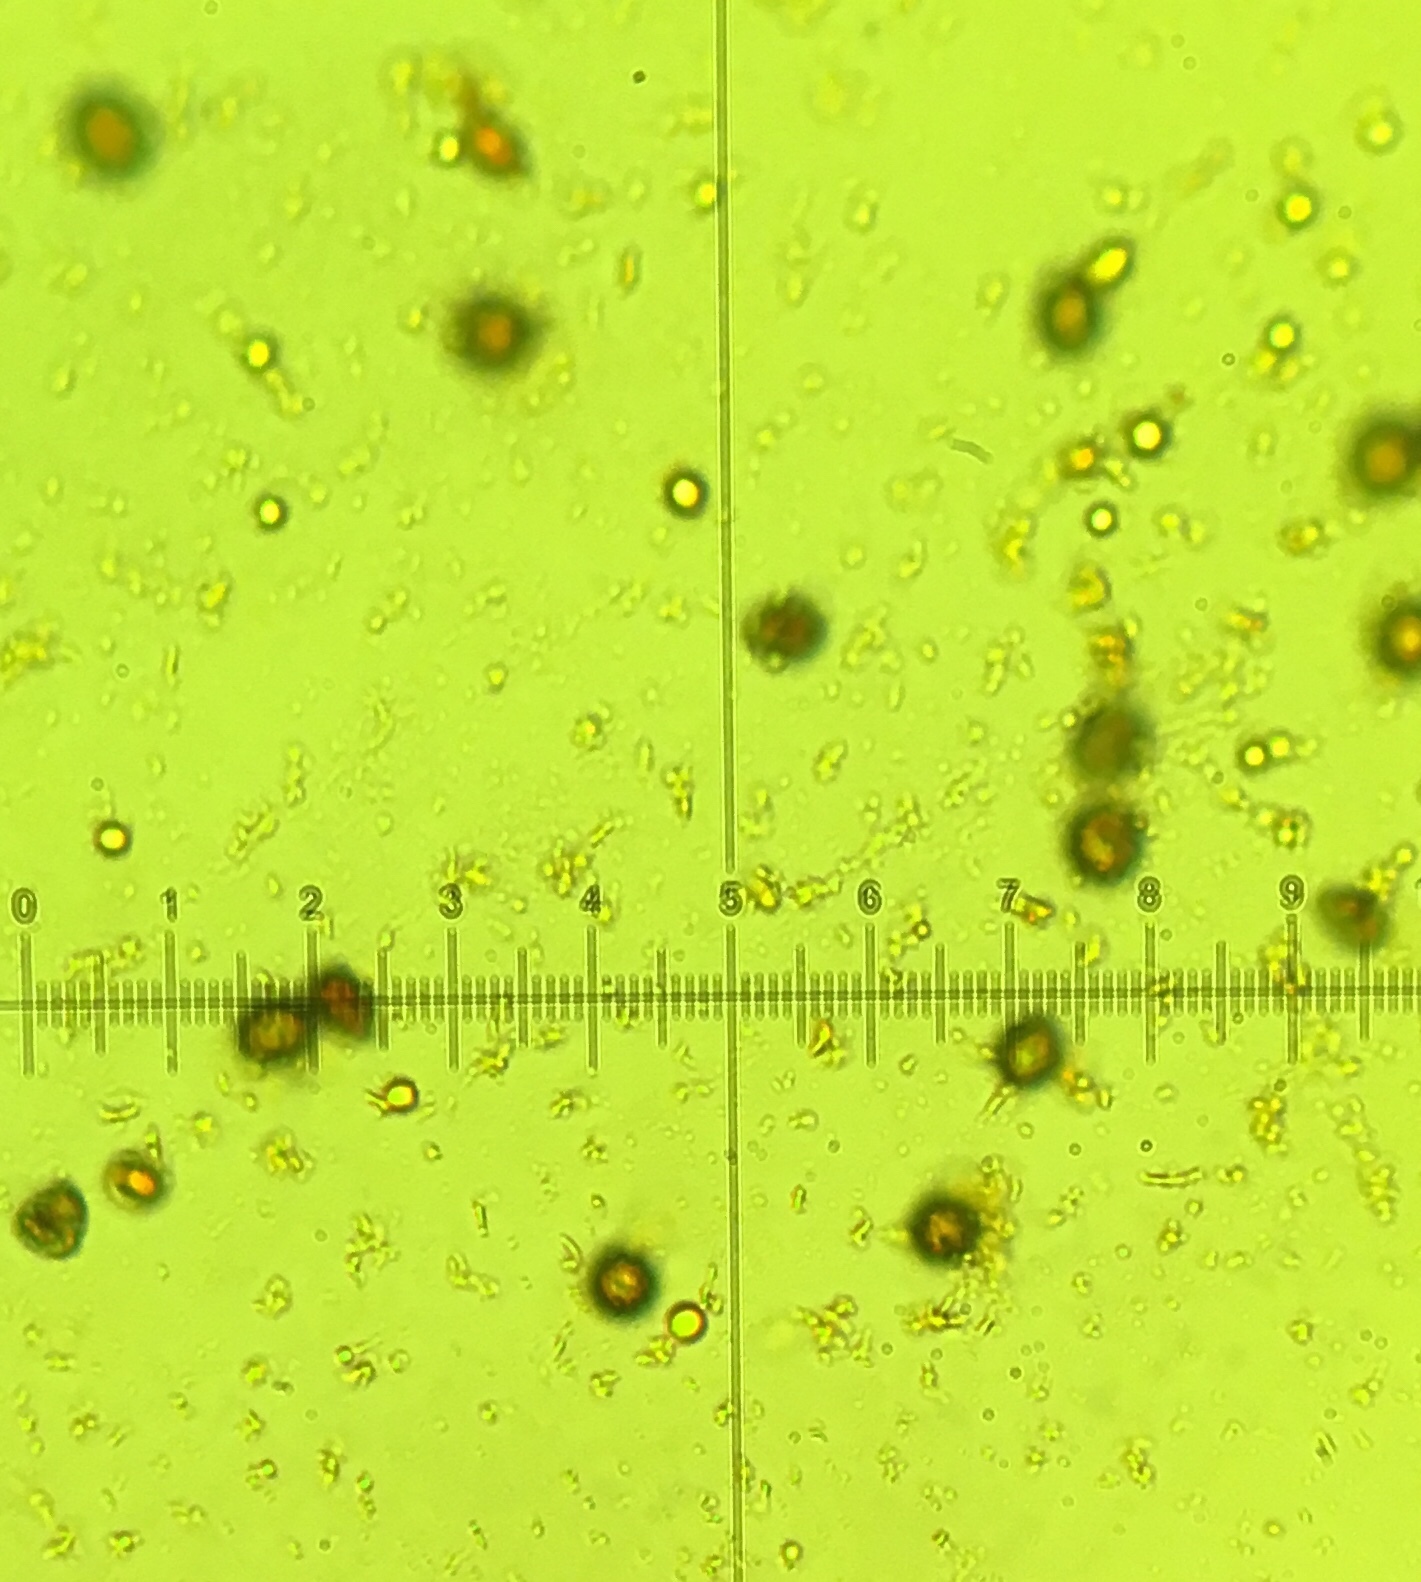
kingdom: Fungi
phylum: Basidiomycota
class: Agaricomycetes
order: Russulales
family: Russulaceae
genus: Russula
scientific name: Russula heterophylla
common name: Greasy green brittlegill
